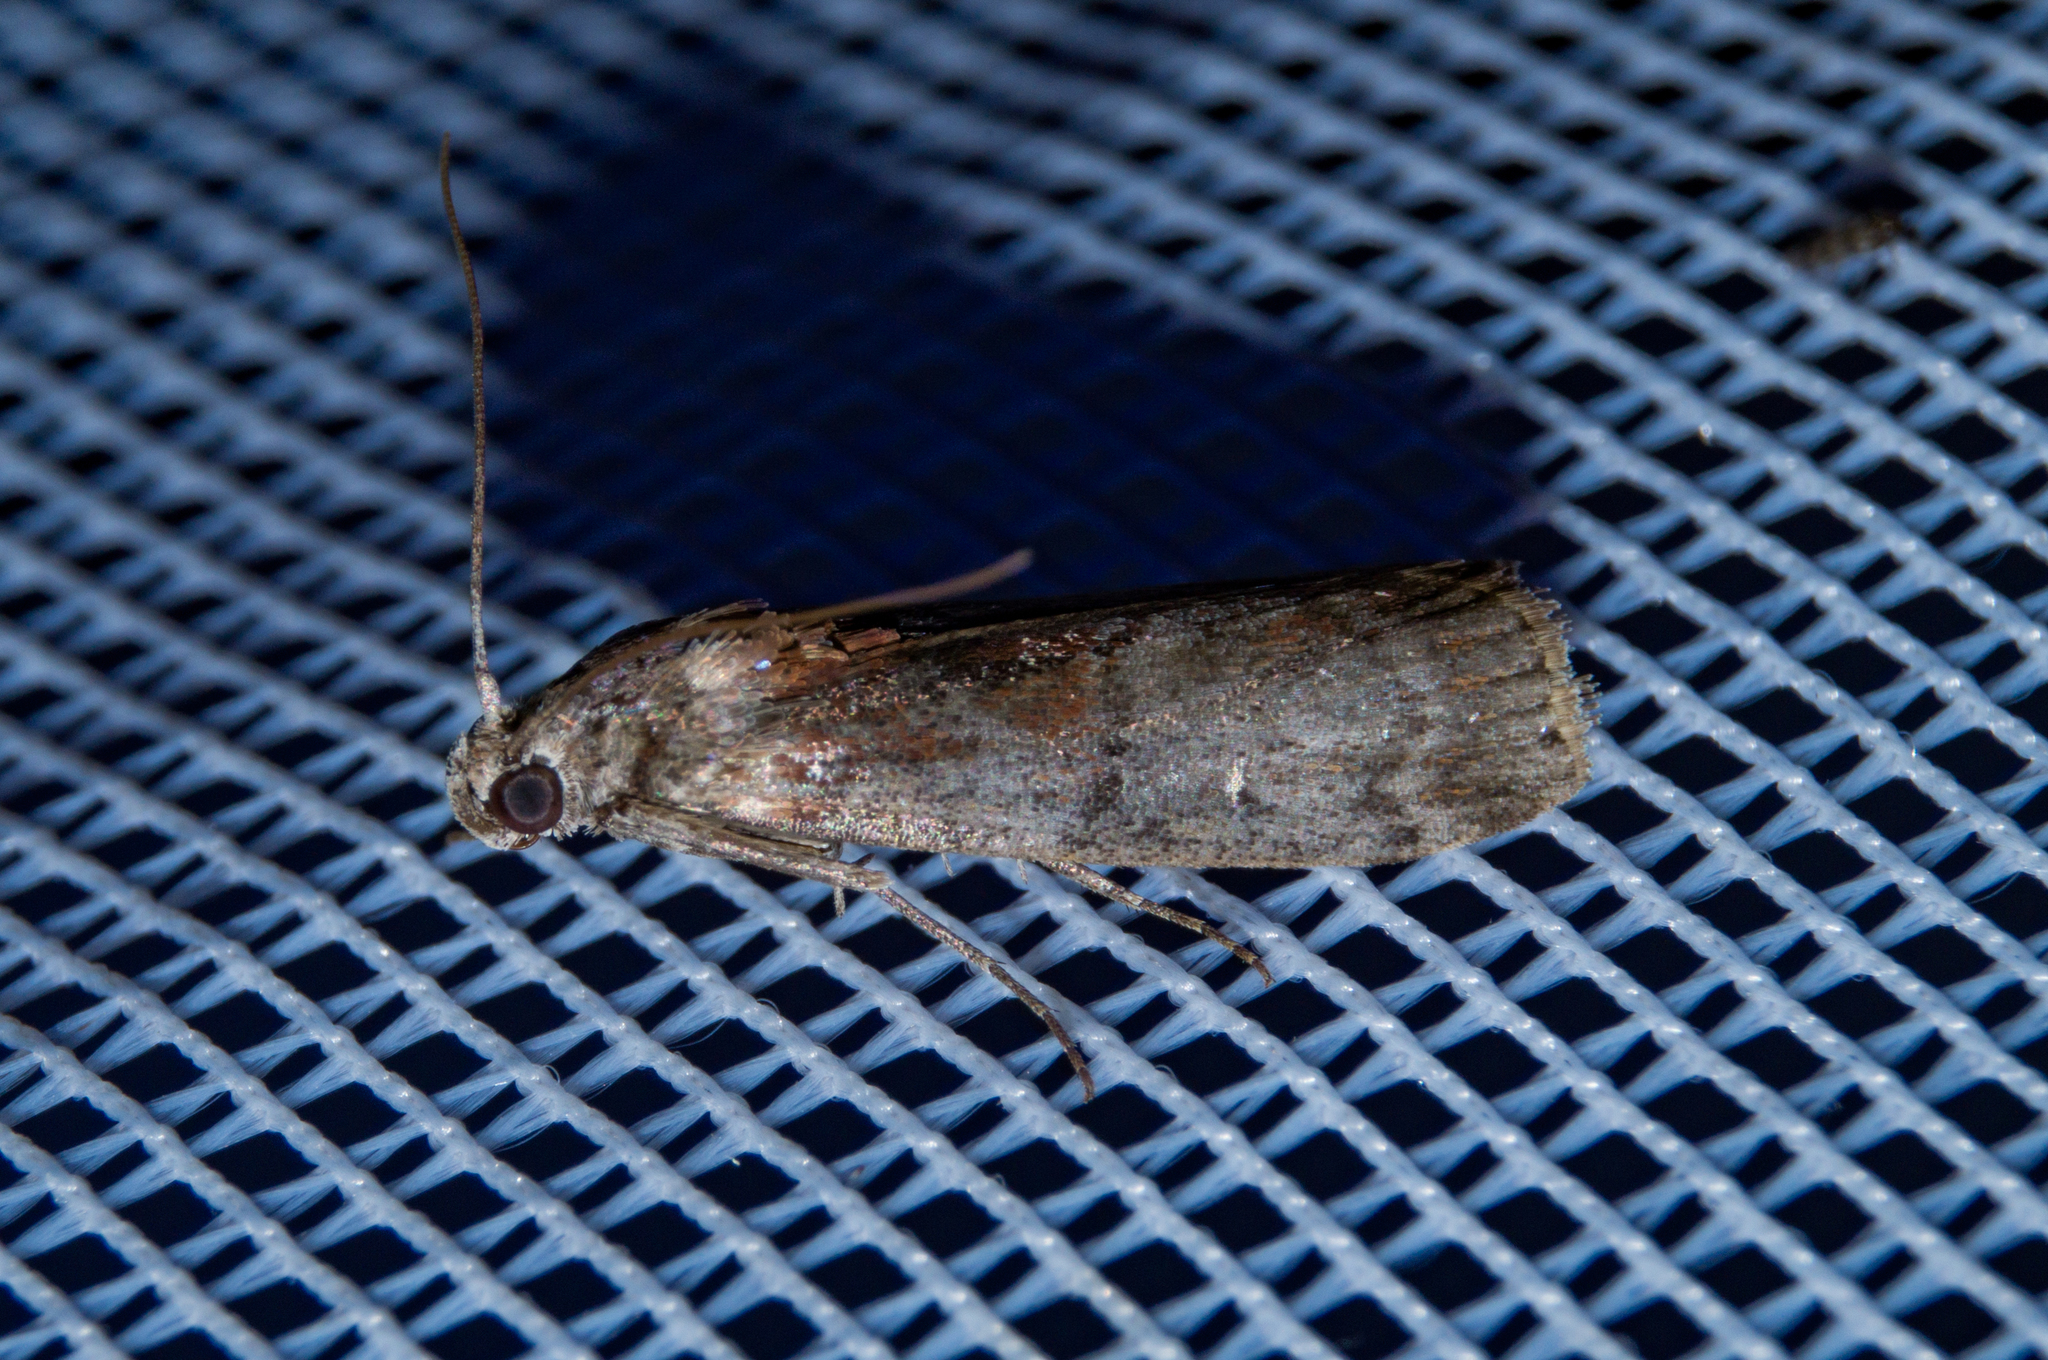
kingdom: Animalia
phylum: Arthropoda
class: Insecta
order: Lepidoptera
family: Pyralidae
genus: Phycita
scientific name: Phycita roborella
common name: Dotted oak knot-horn
